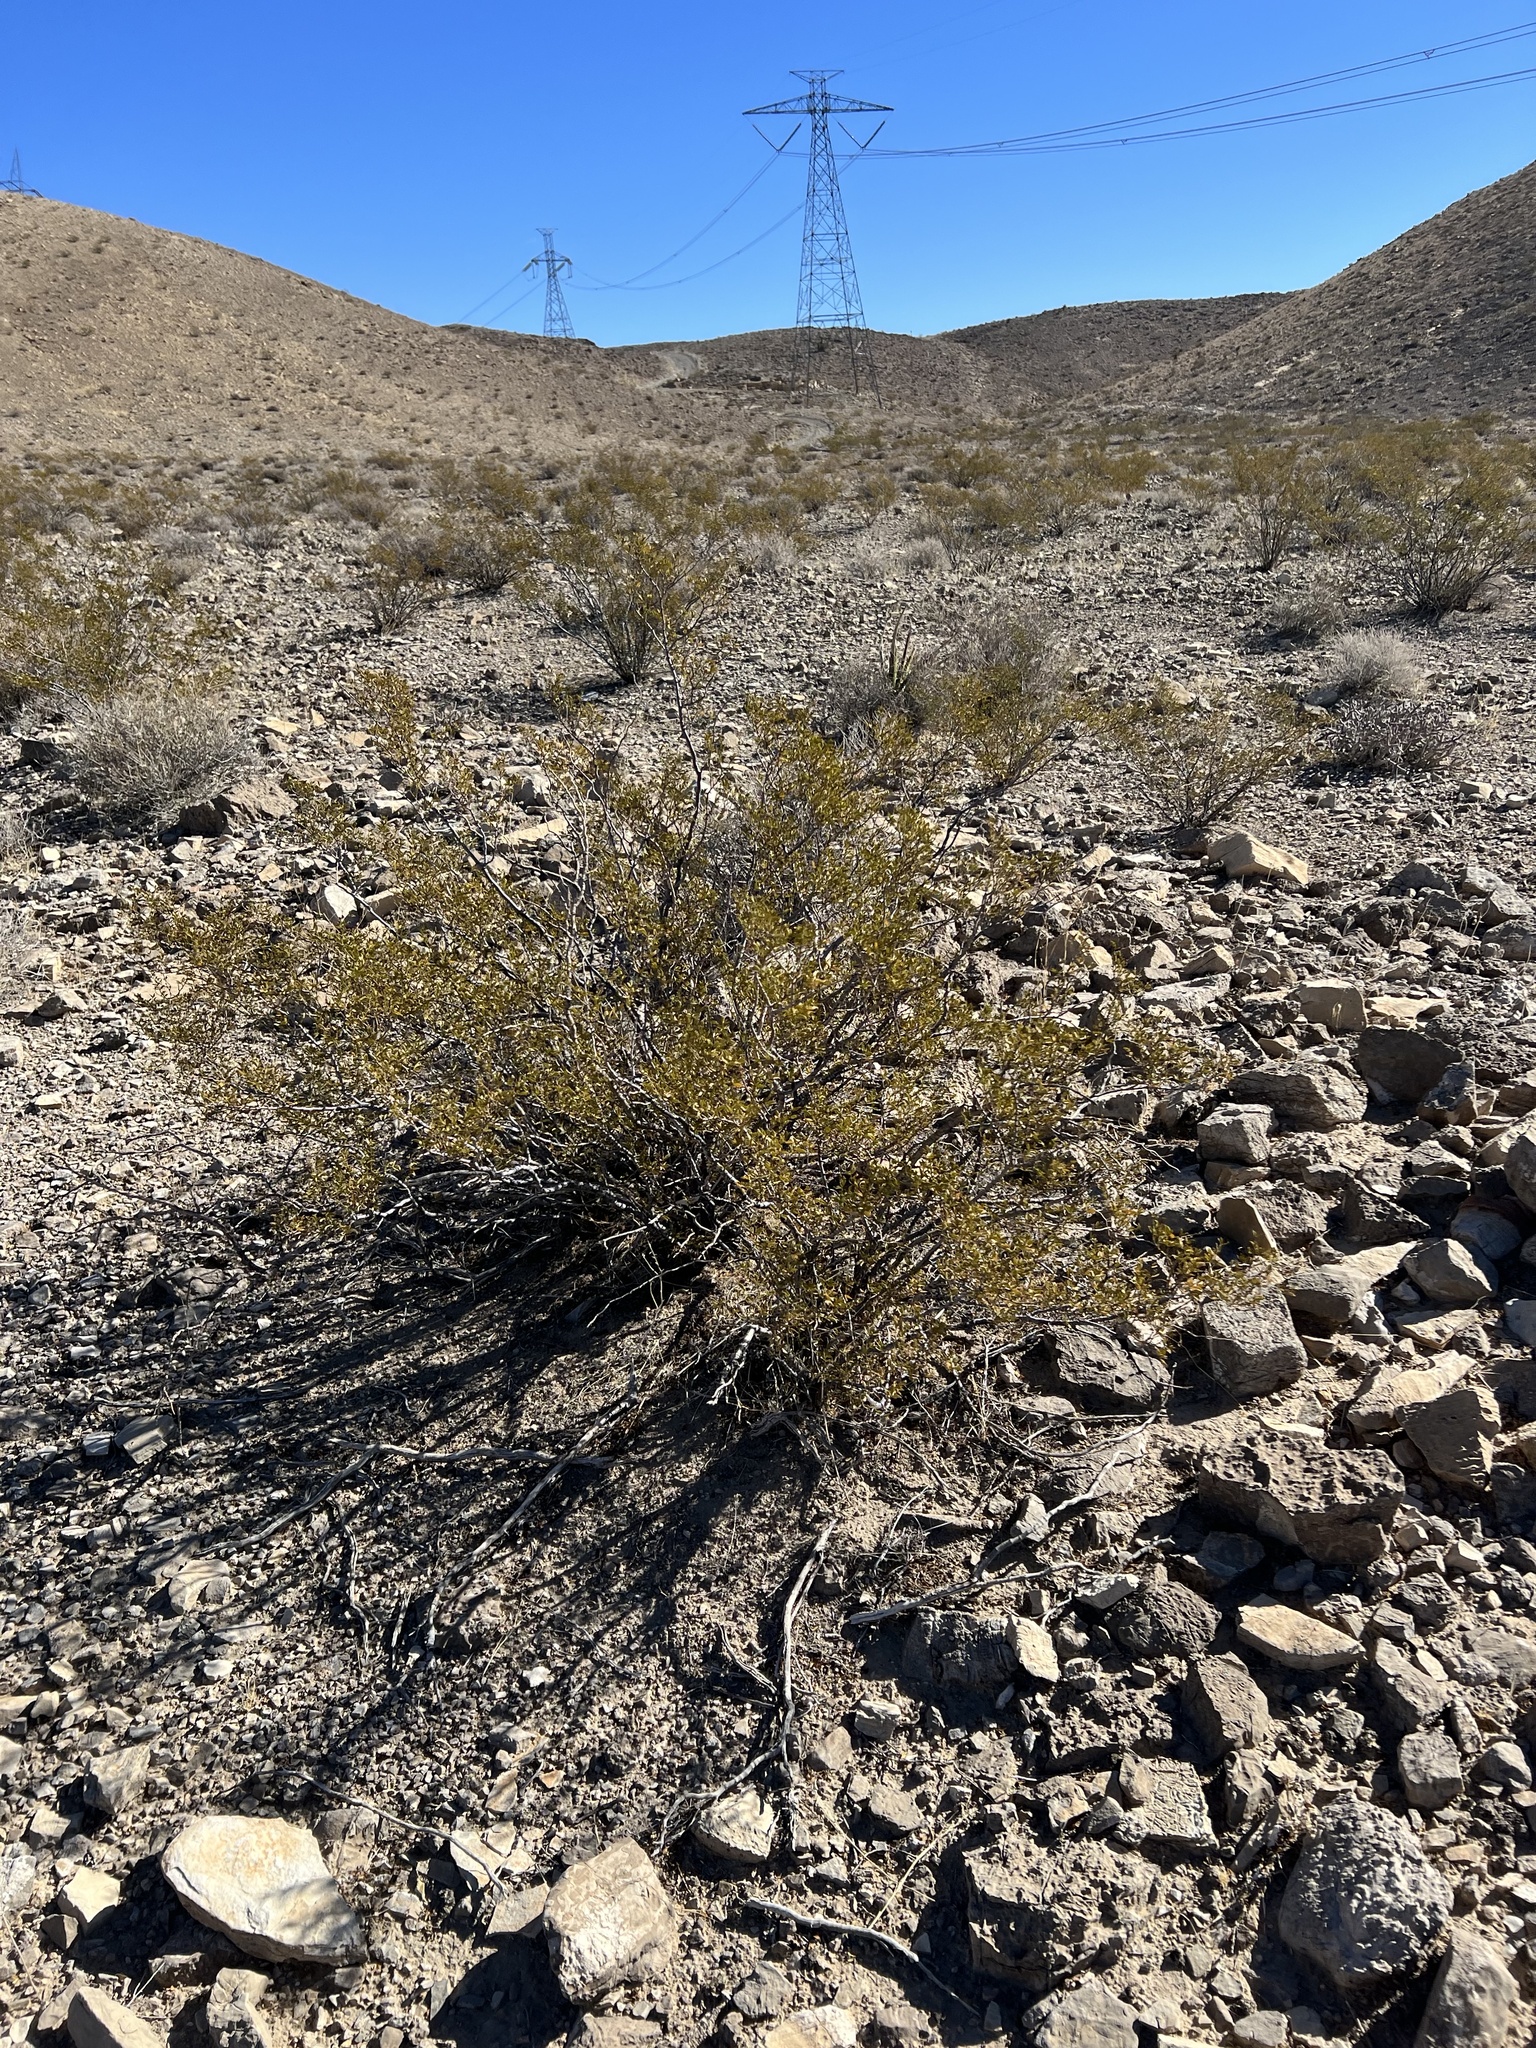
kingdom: Plantae
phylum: Tracheophyta
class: Magnoliopsida
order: Zygophyllales
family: Zygophyllaceae
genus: Larrea
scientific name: Larrea tridentata
